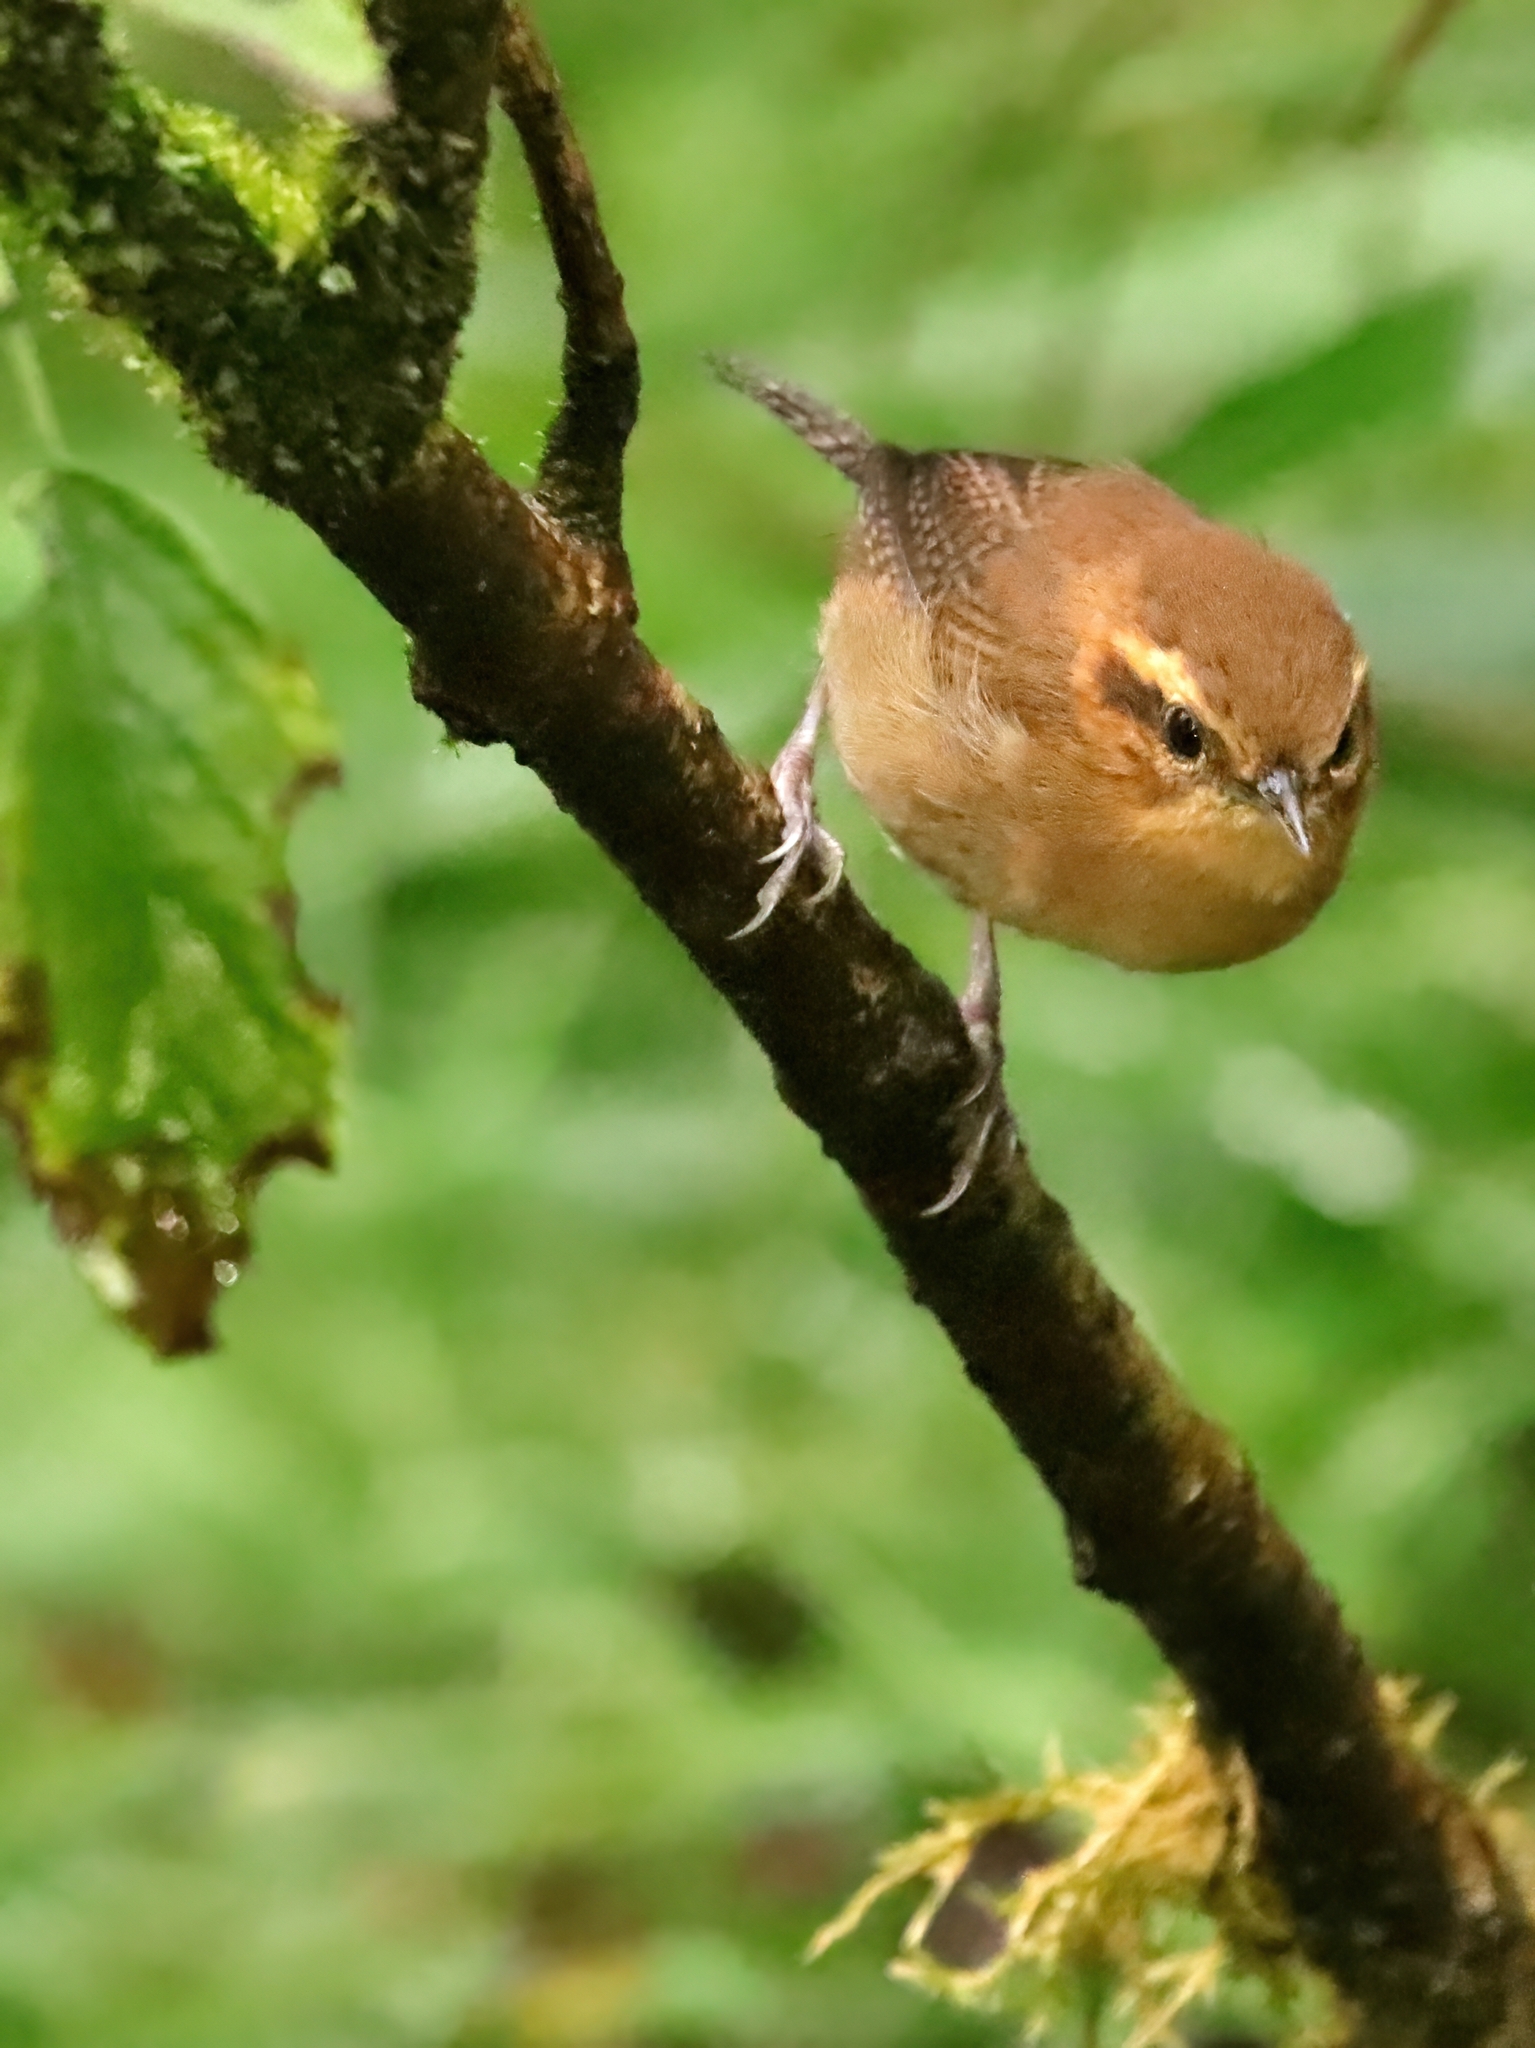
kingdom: Animalia
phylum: Chordata
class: Aves
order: Passeriformes
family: Troglodytidae
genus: Troglodytes
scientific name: Troglodytes solstitialis
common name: Mountain wren
